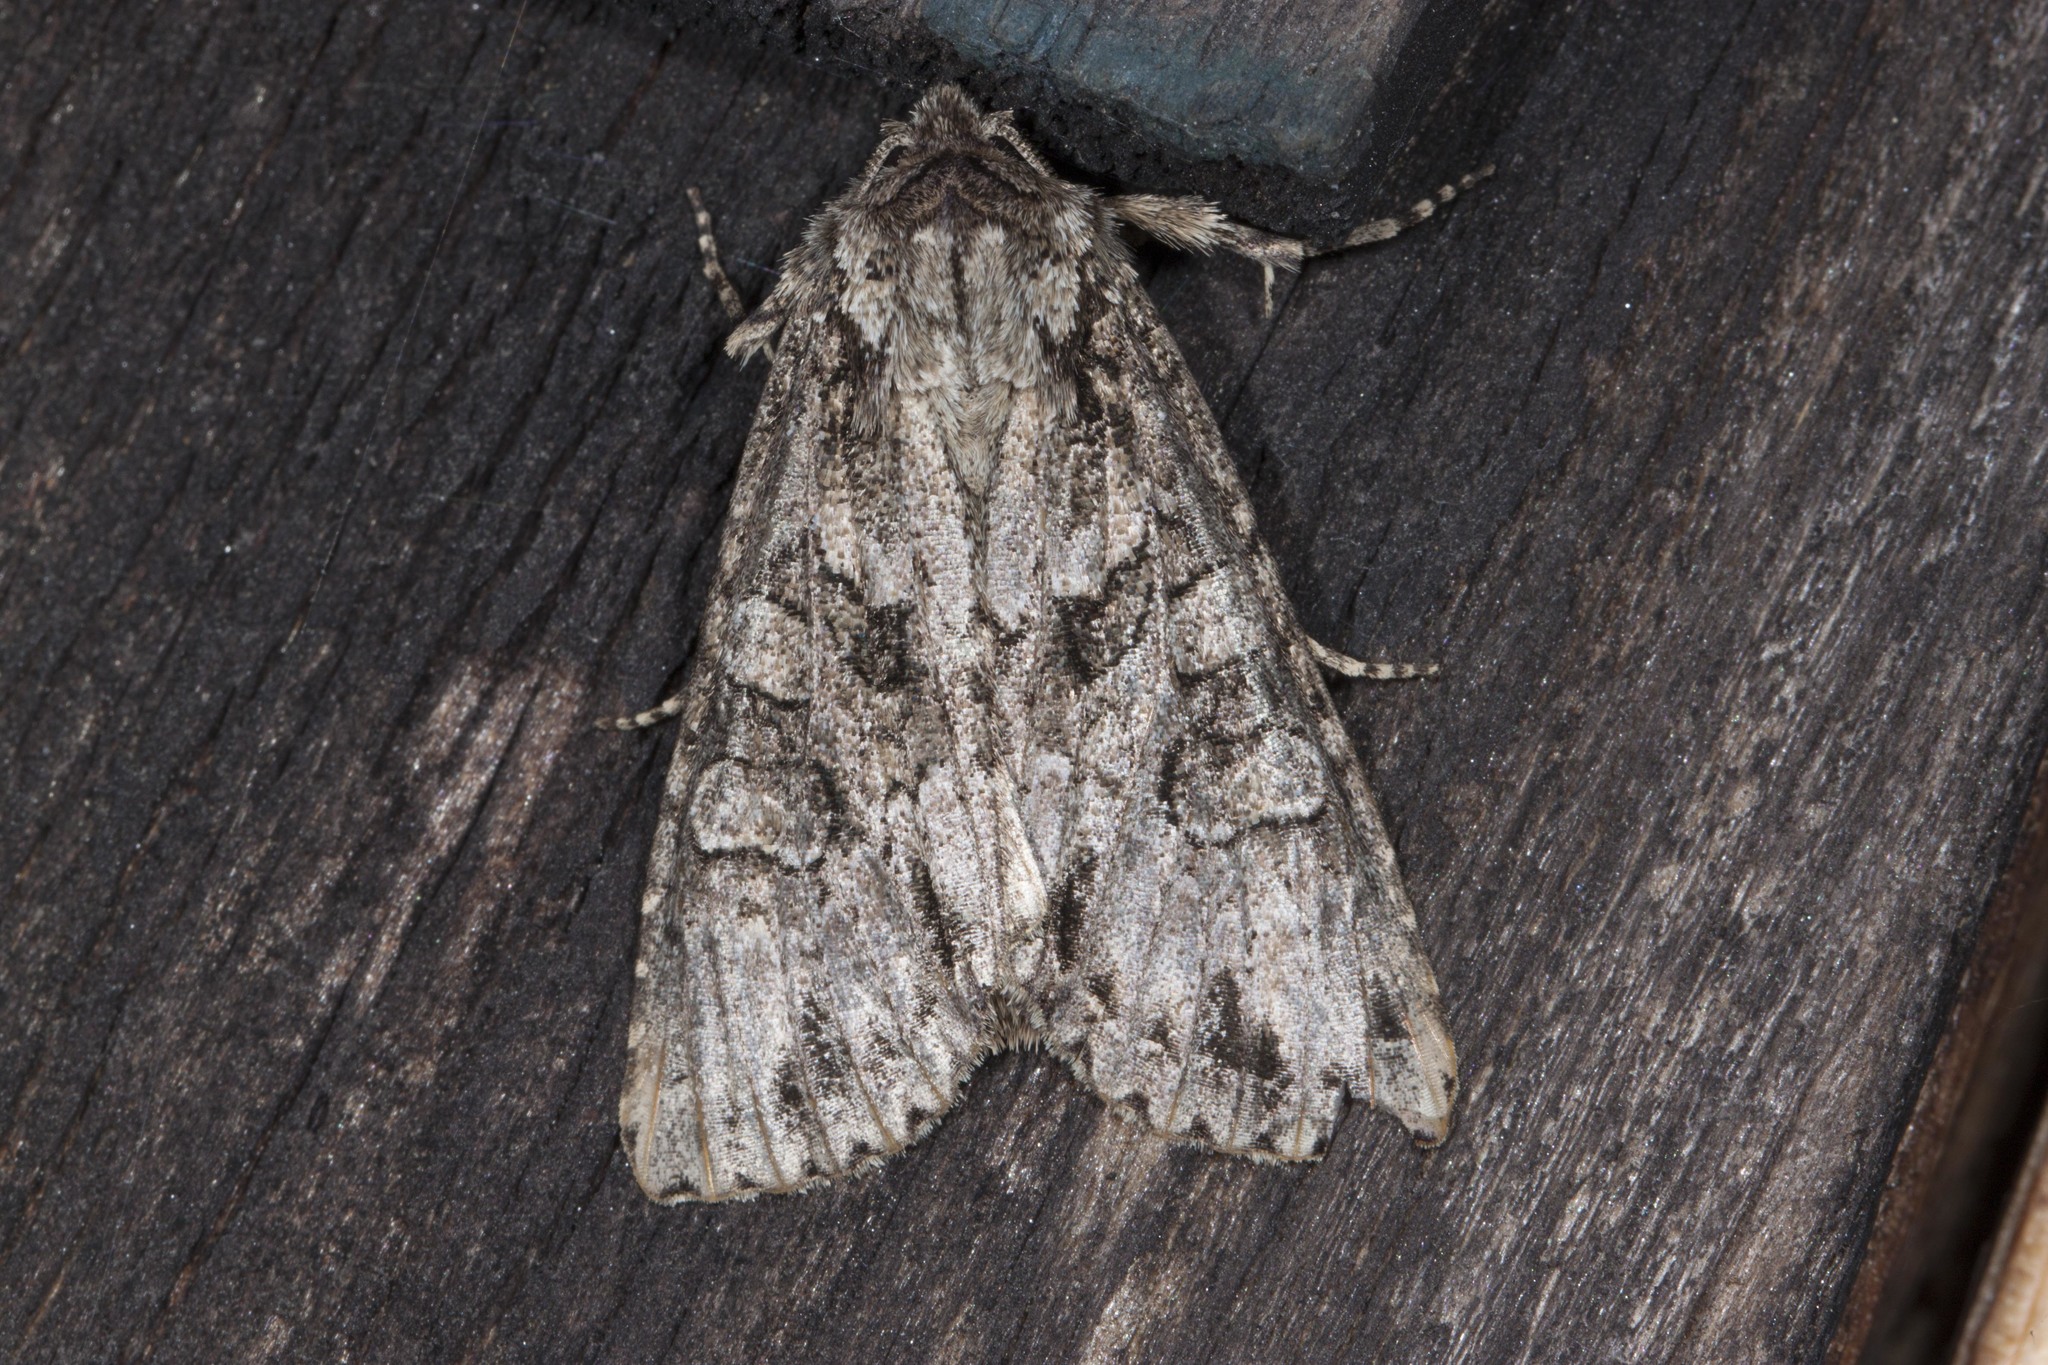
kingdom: Animalia
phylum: Arthropoda
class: Insecta
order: Lepidoptera
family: Noctuidae
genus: Polia
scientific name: Polia imbrifera
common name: Cloudy arches moth
